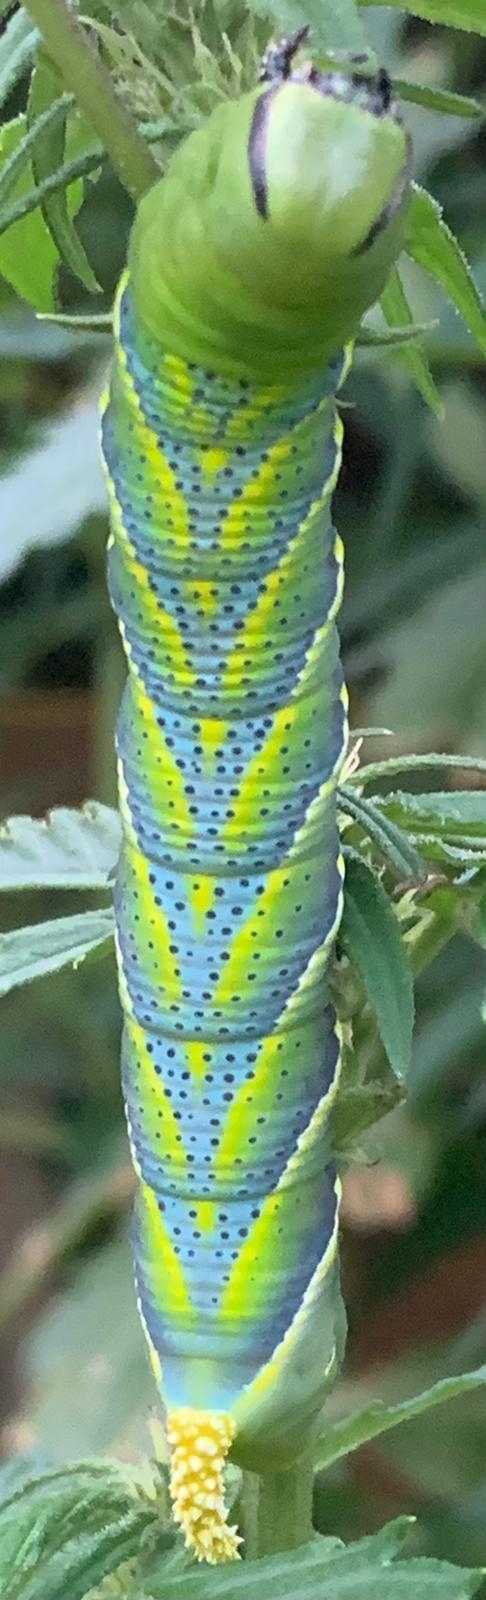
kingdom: Animalia
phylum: Arthropoda
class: Insecta
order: Lepidoptera
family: Sphingidae
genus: Acherontia
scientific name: Acherontia atropos
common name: Death's-head hawk moth
